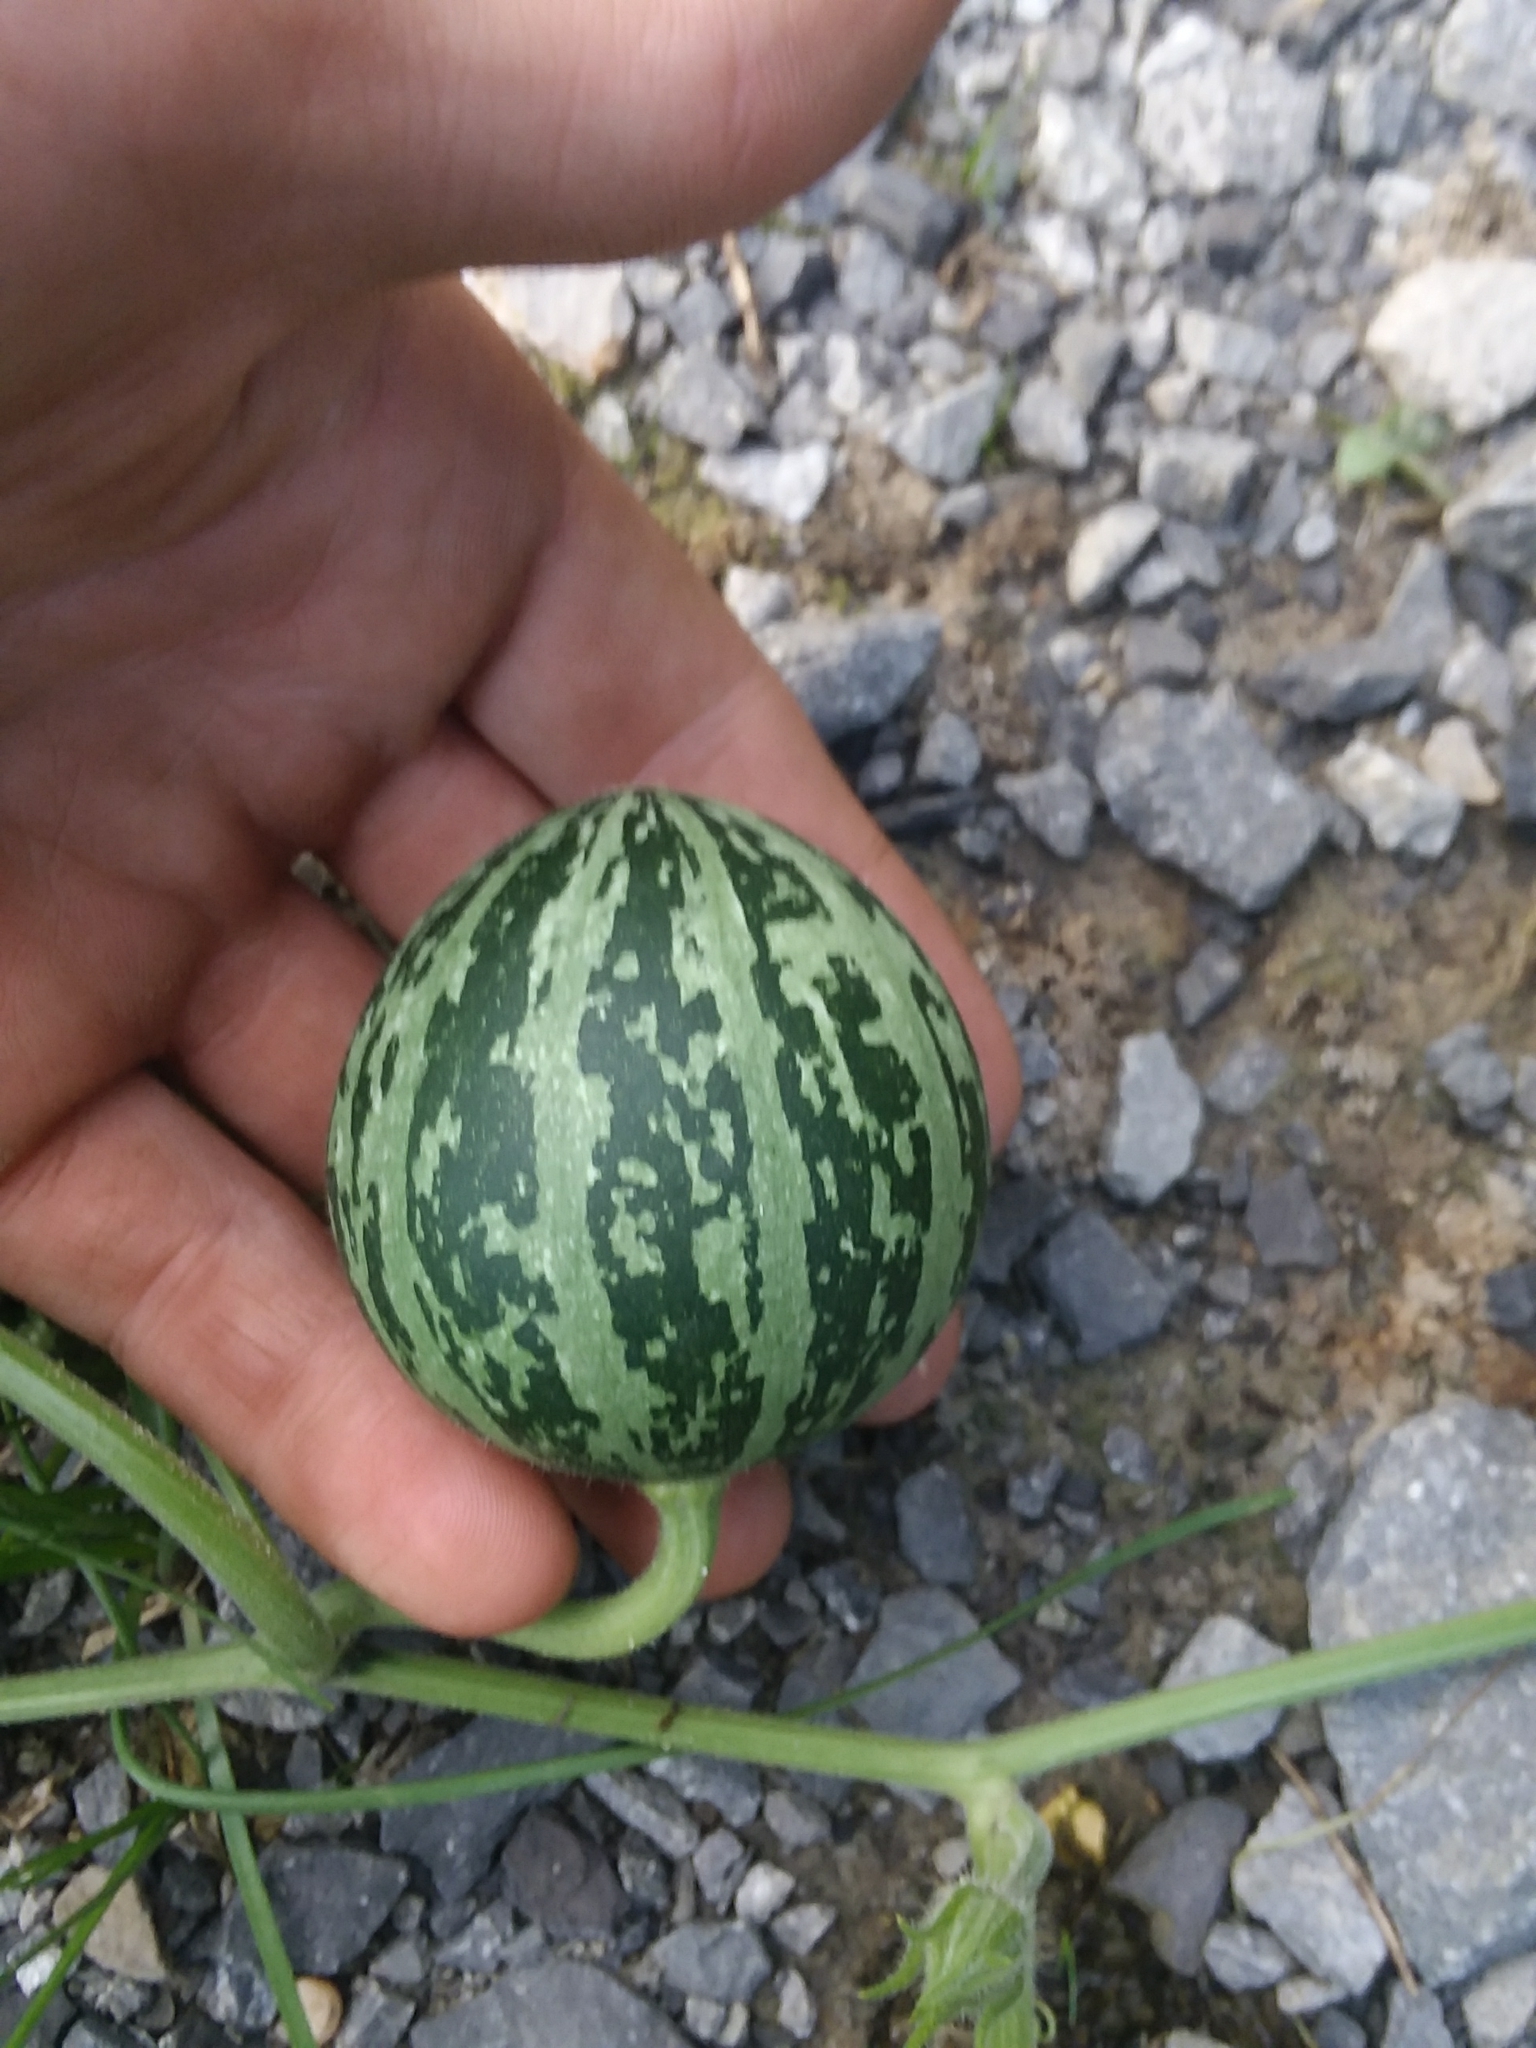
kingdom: Plantae
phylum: Tracheophyta
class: Magnoliopsida
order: Cucurbitales
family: Cucurbitaceae
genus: Cucurbita
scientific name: Cucurbita pepo
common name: Marrow
